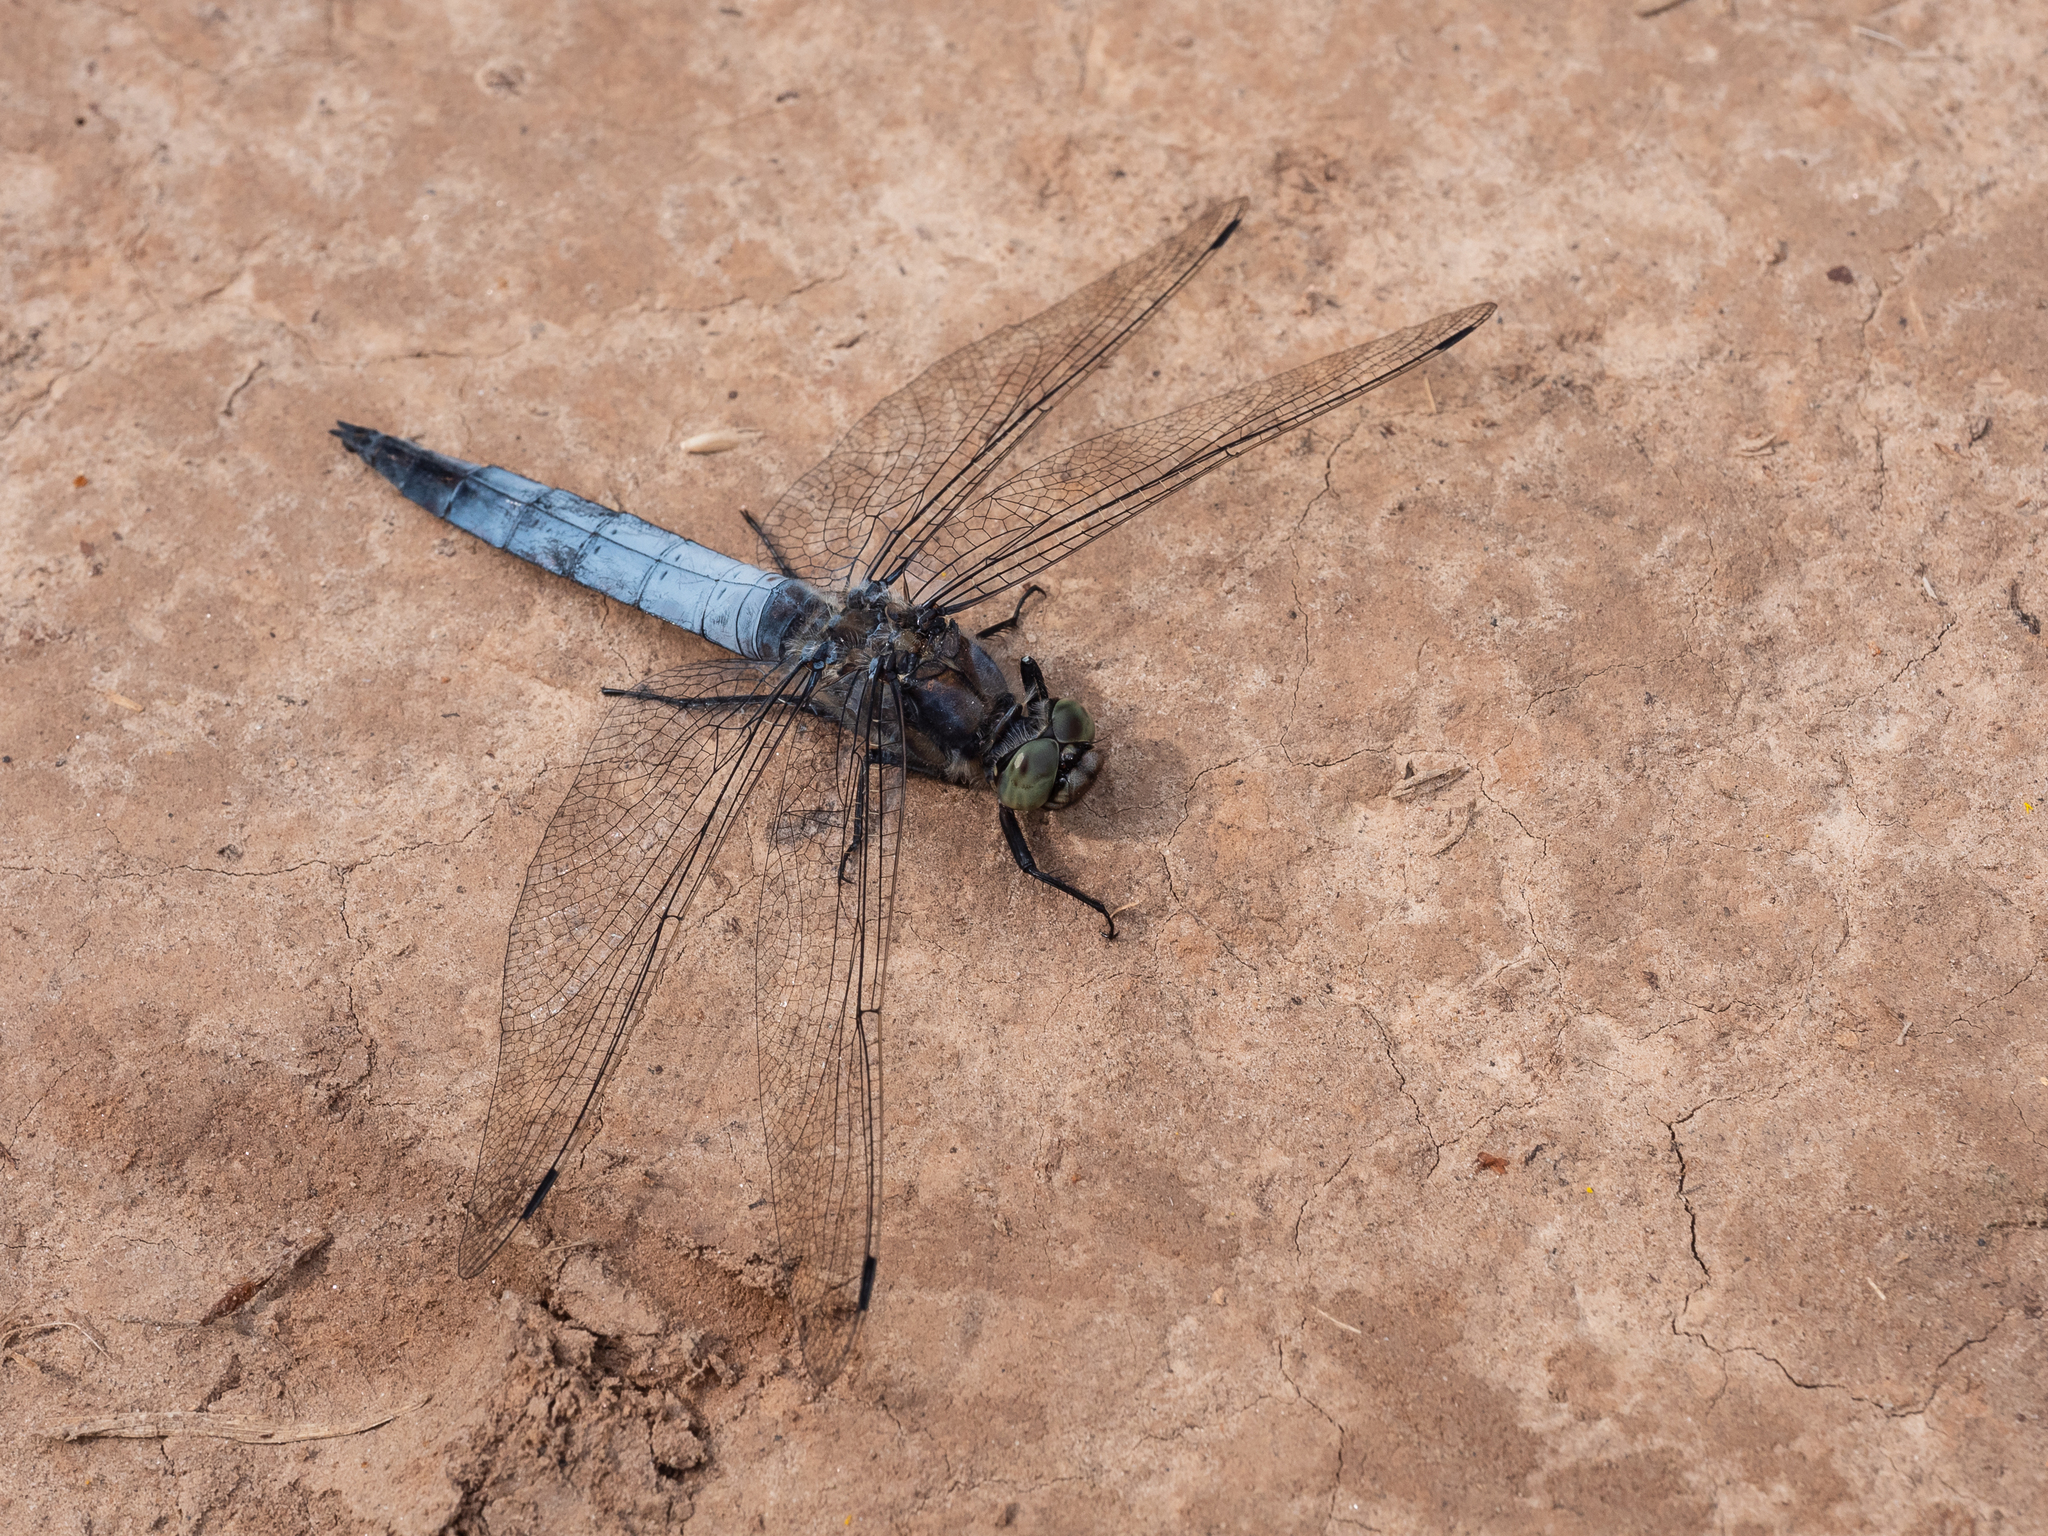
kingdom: Animalia
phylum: Arthropoda
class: Insecta
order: Odonata
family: Libellulidae
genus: Orthetrum
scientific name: Orthetrum cancellatum
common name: Black-tailed skimmer
